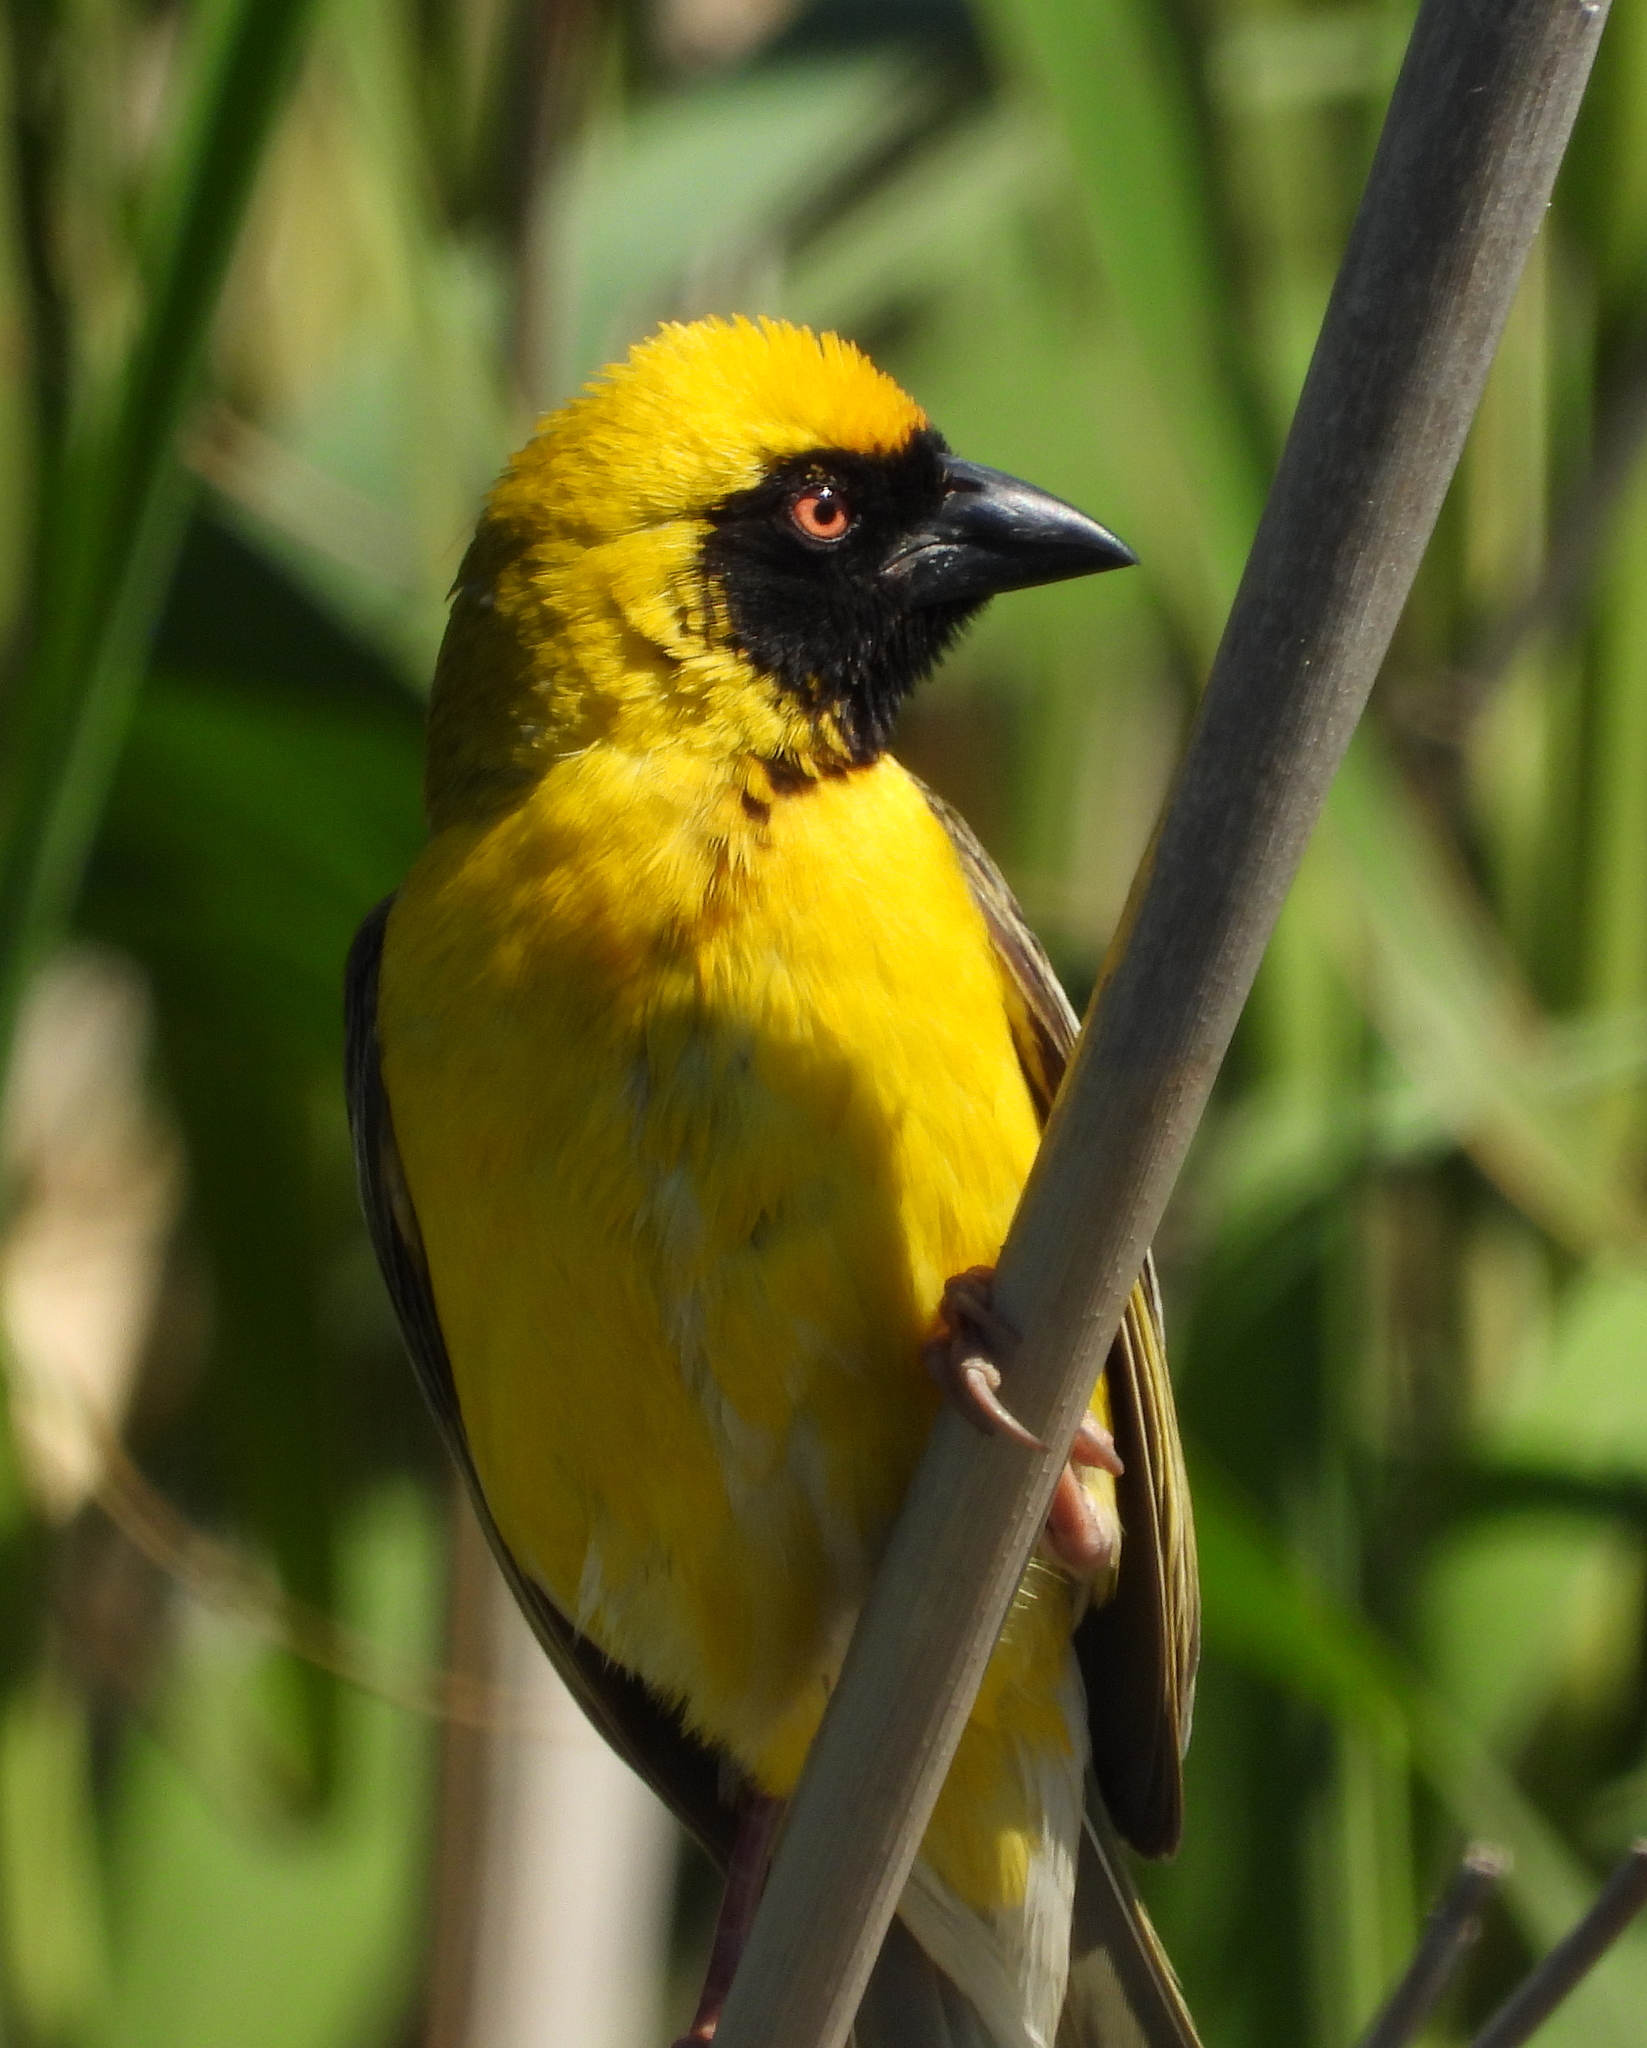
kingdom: Animalia
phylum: Chordata
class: Aves
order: Passeriformes
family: Ploceidae
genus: Ploceus
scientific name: Ploceus velatus
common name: Southern masked weaver
